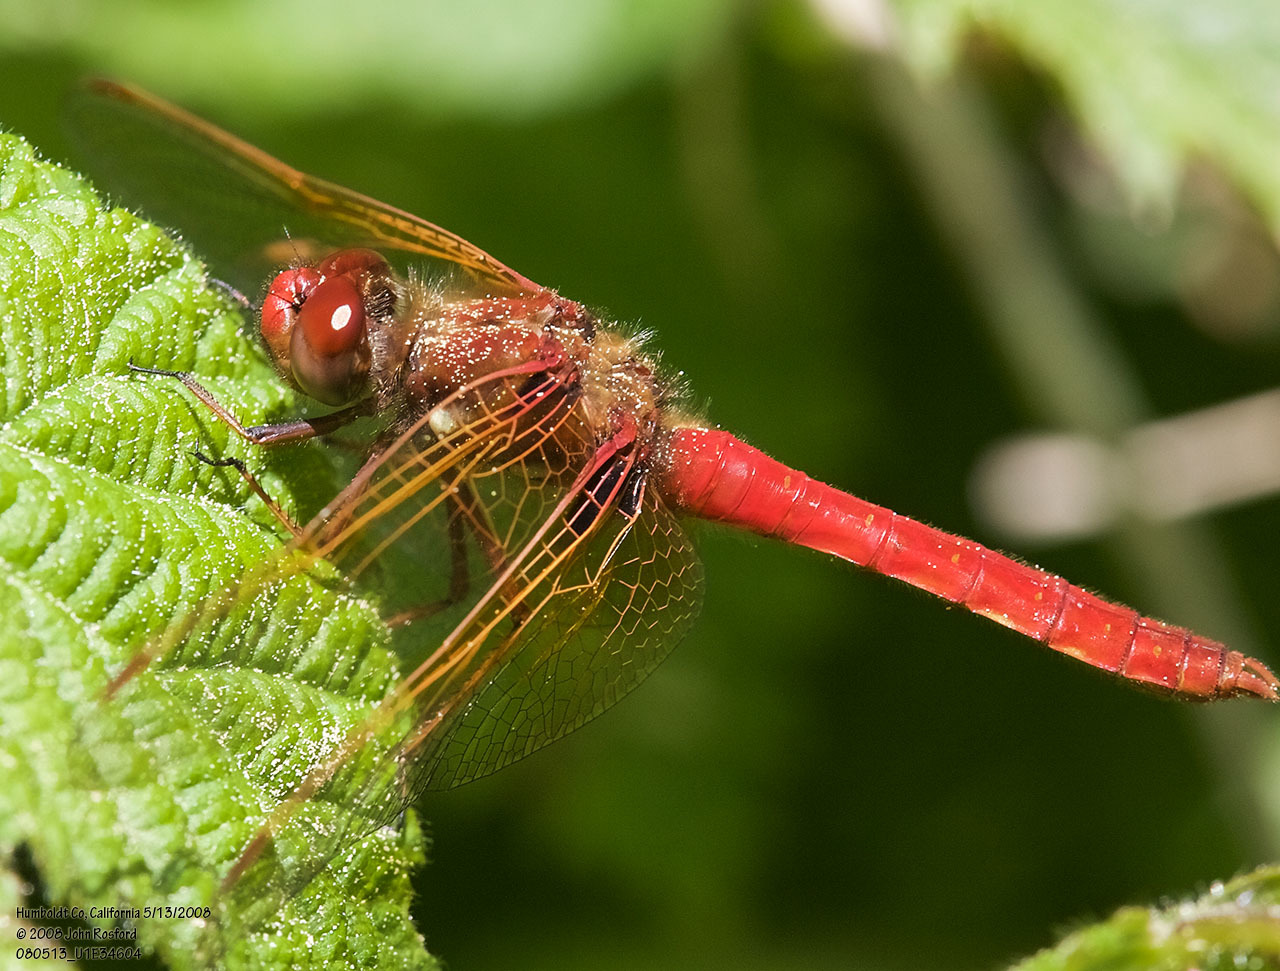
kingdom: Animalia
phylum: Arthropoda
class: Insecta
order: Odonata
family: Libellulidae
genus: Sympetrum
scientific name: Sympetrum illotum
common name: Cardinal meadowhawk
